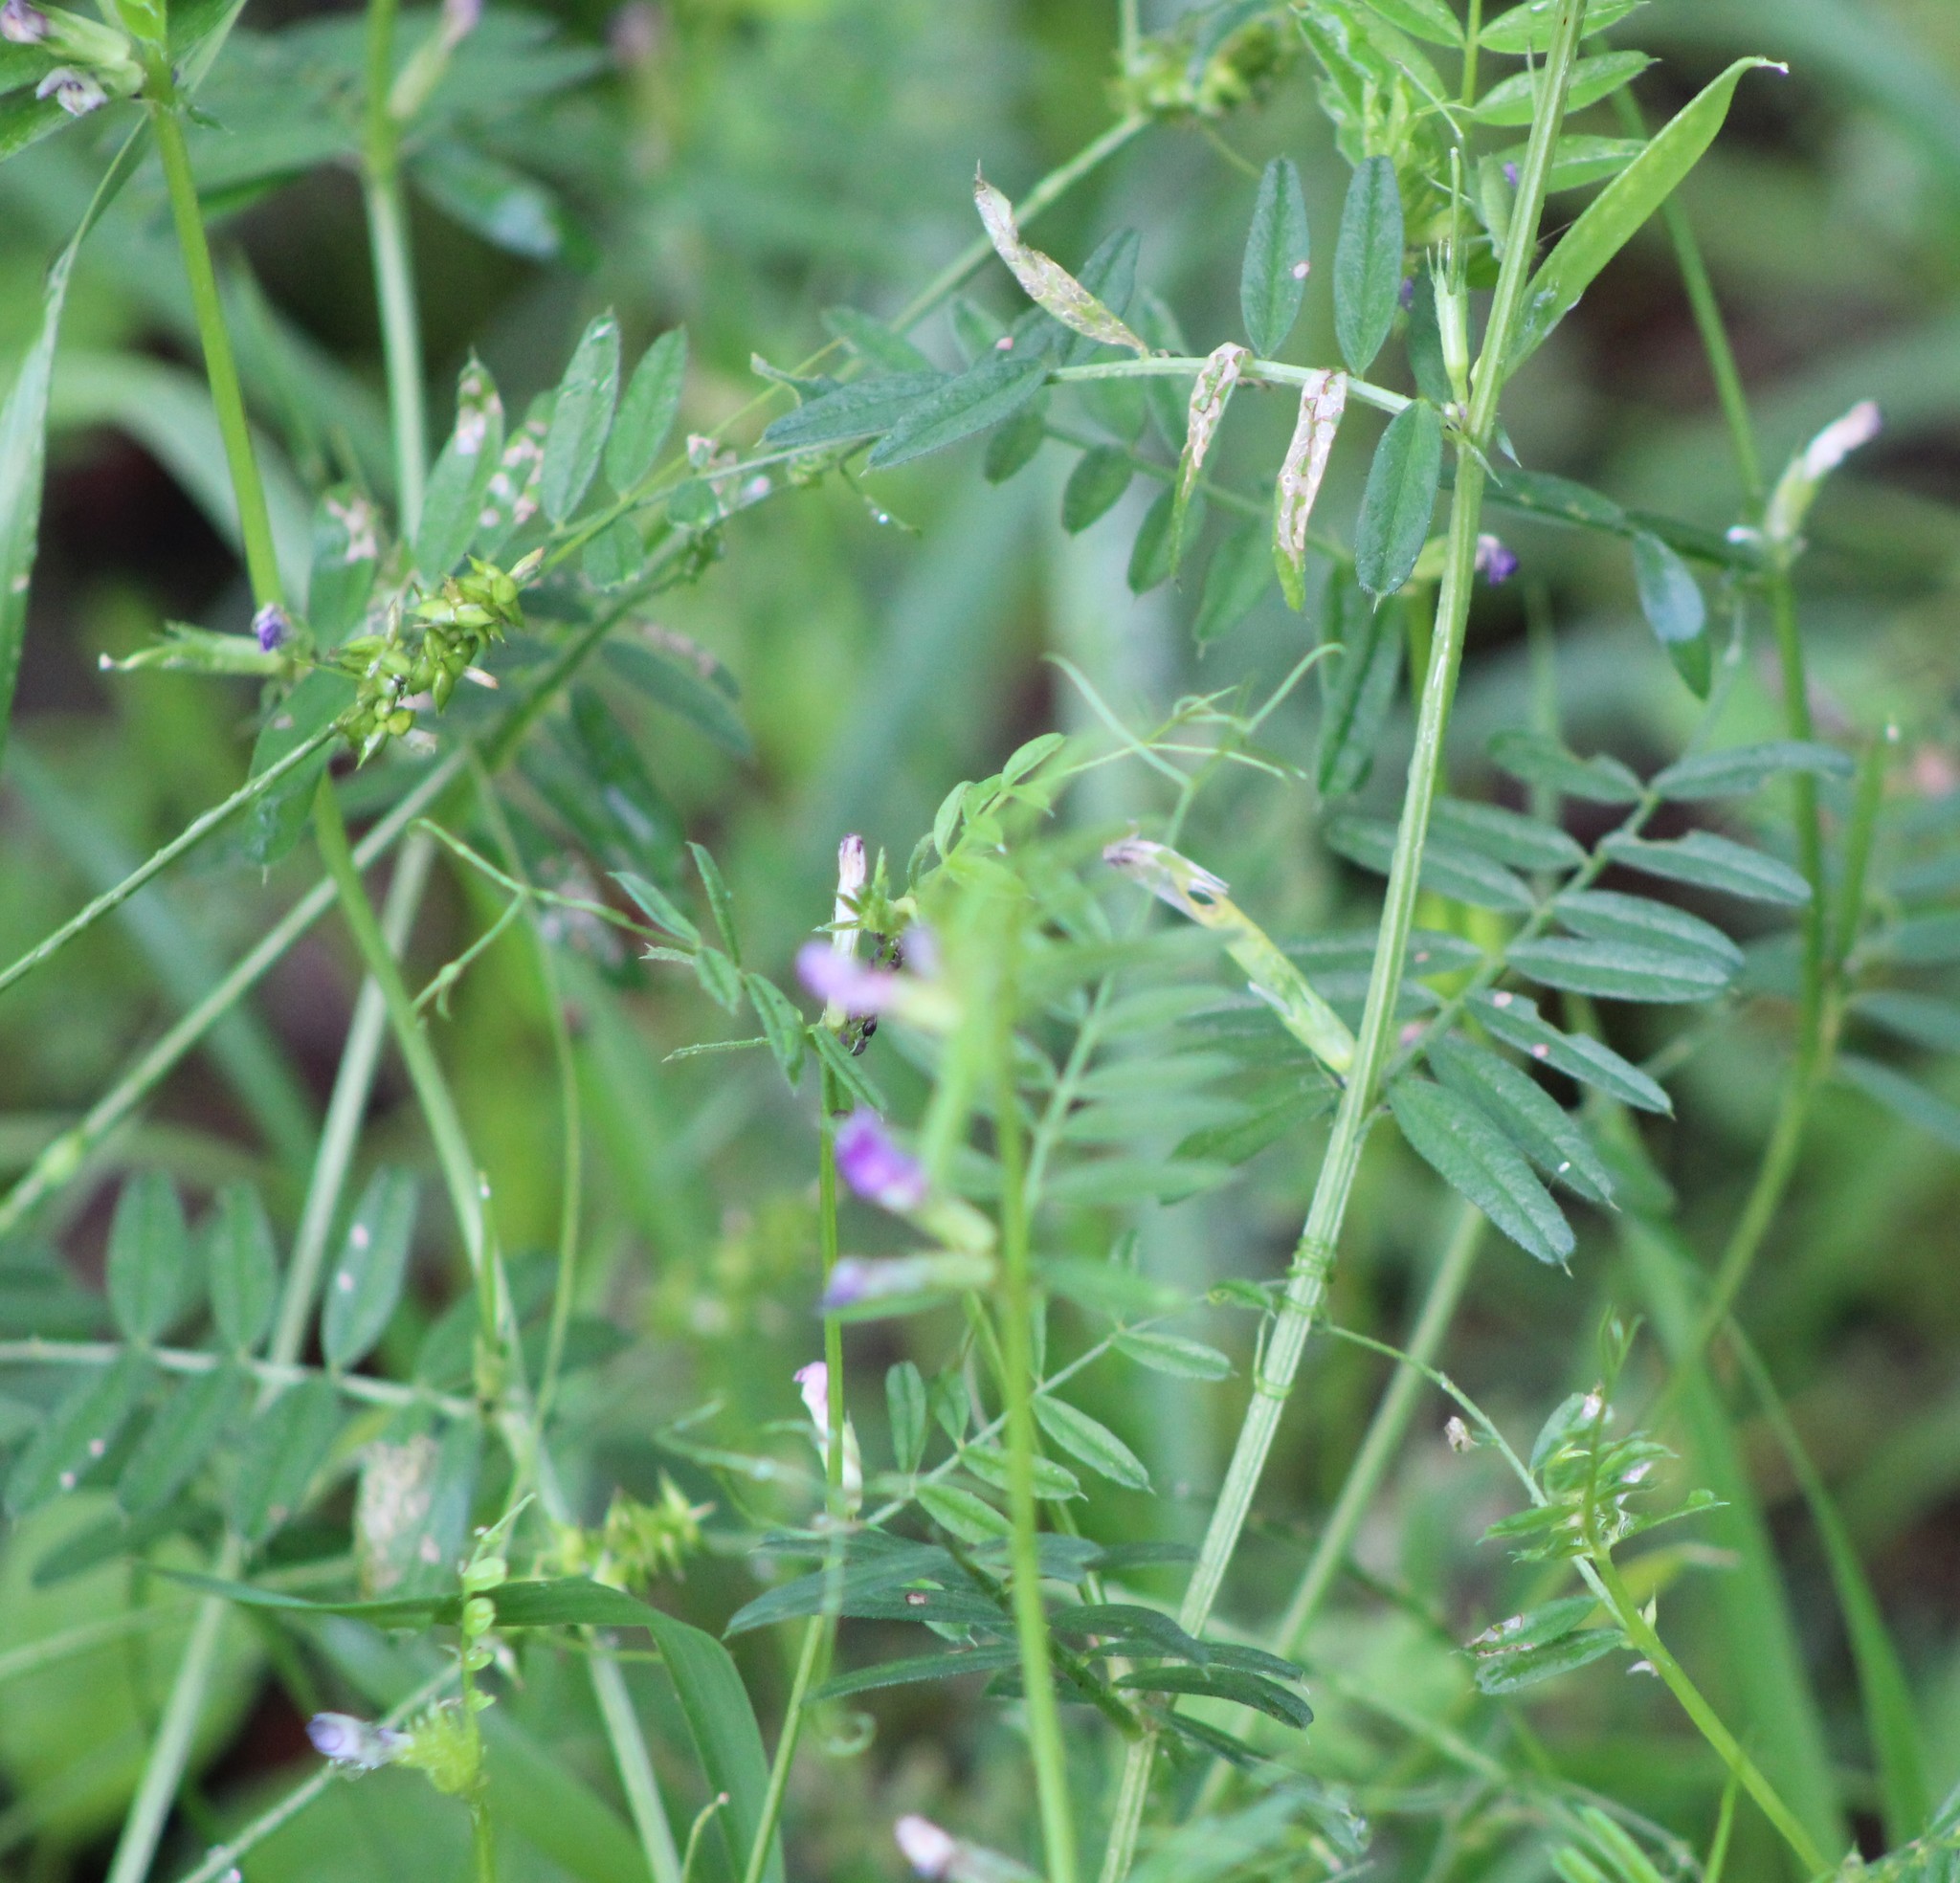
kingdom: Plantae
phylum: Tracheophyta
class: Magnoliopsida
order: Fabales
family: Fabaceae
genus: Vicia
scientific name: Vicia sativa
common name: Garden vetch
